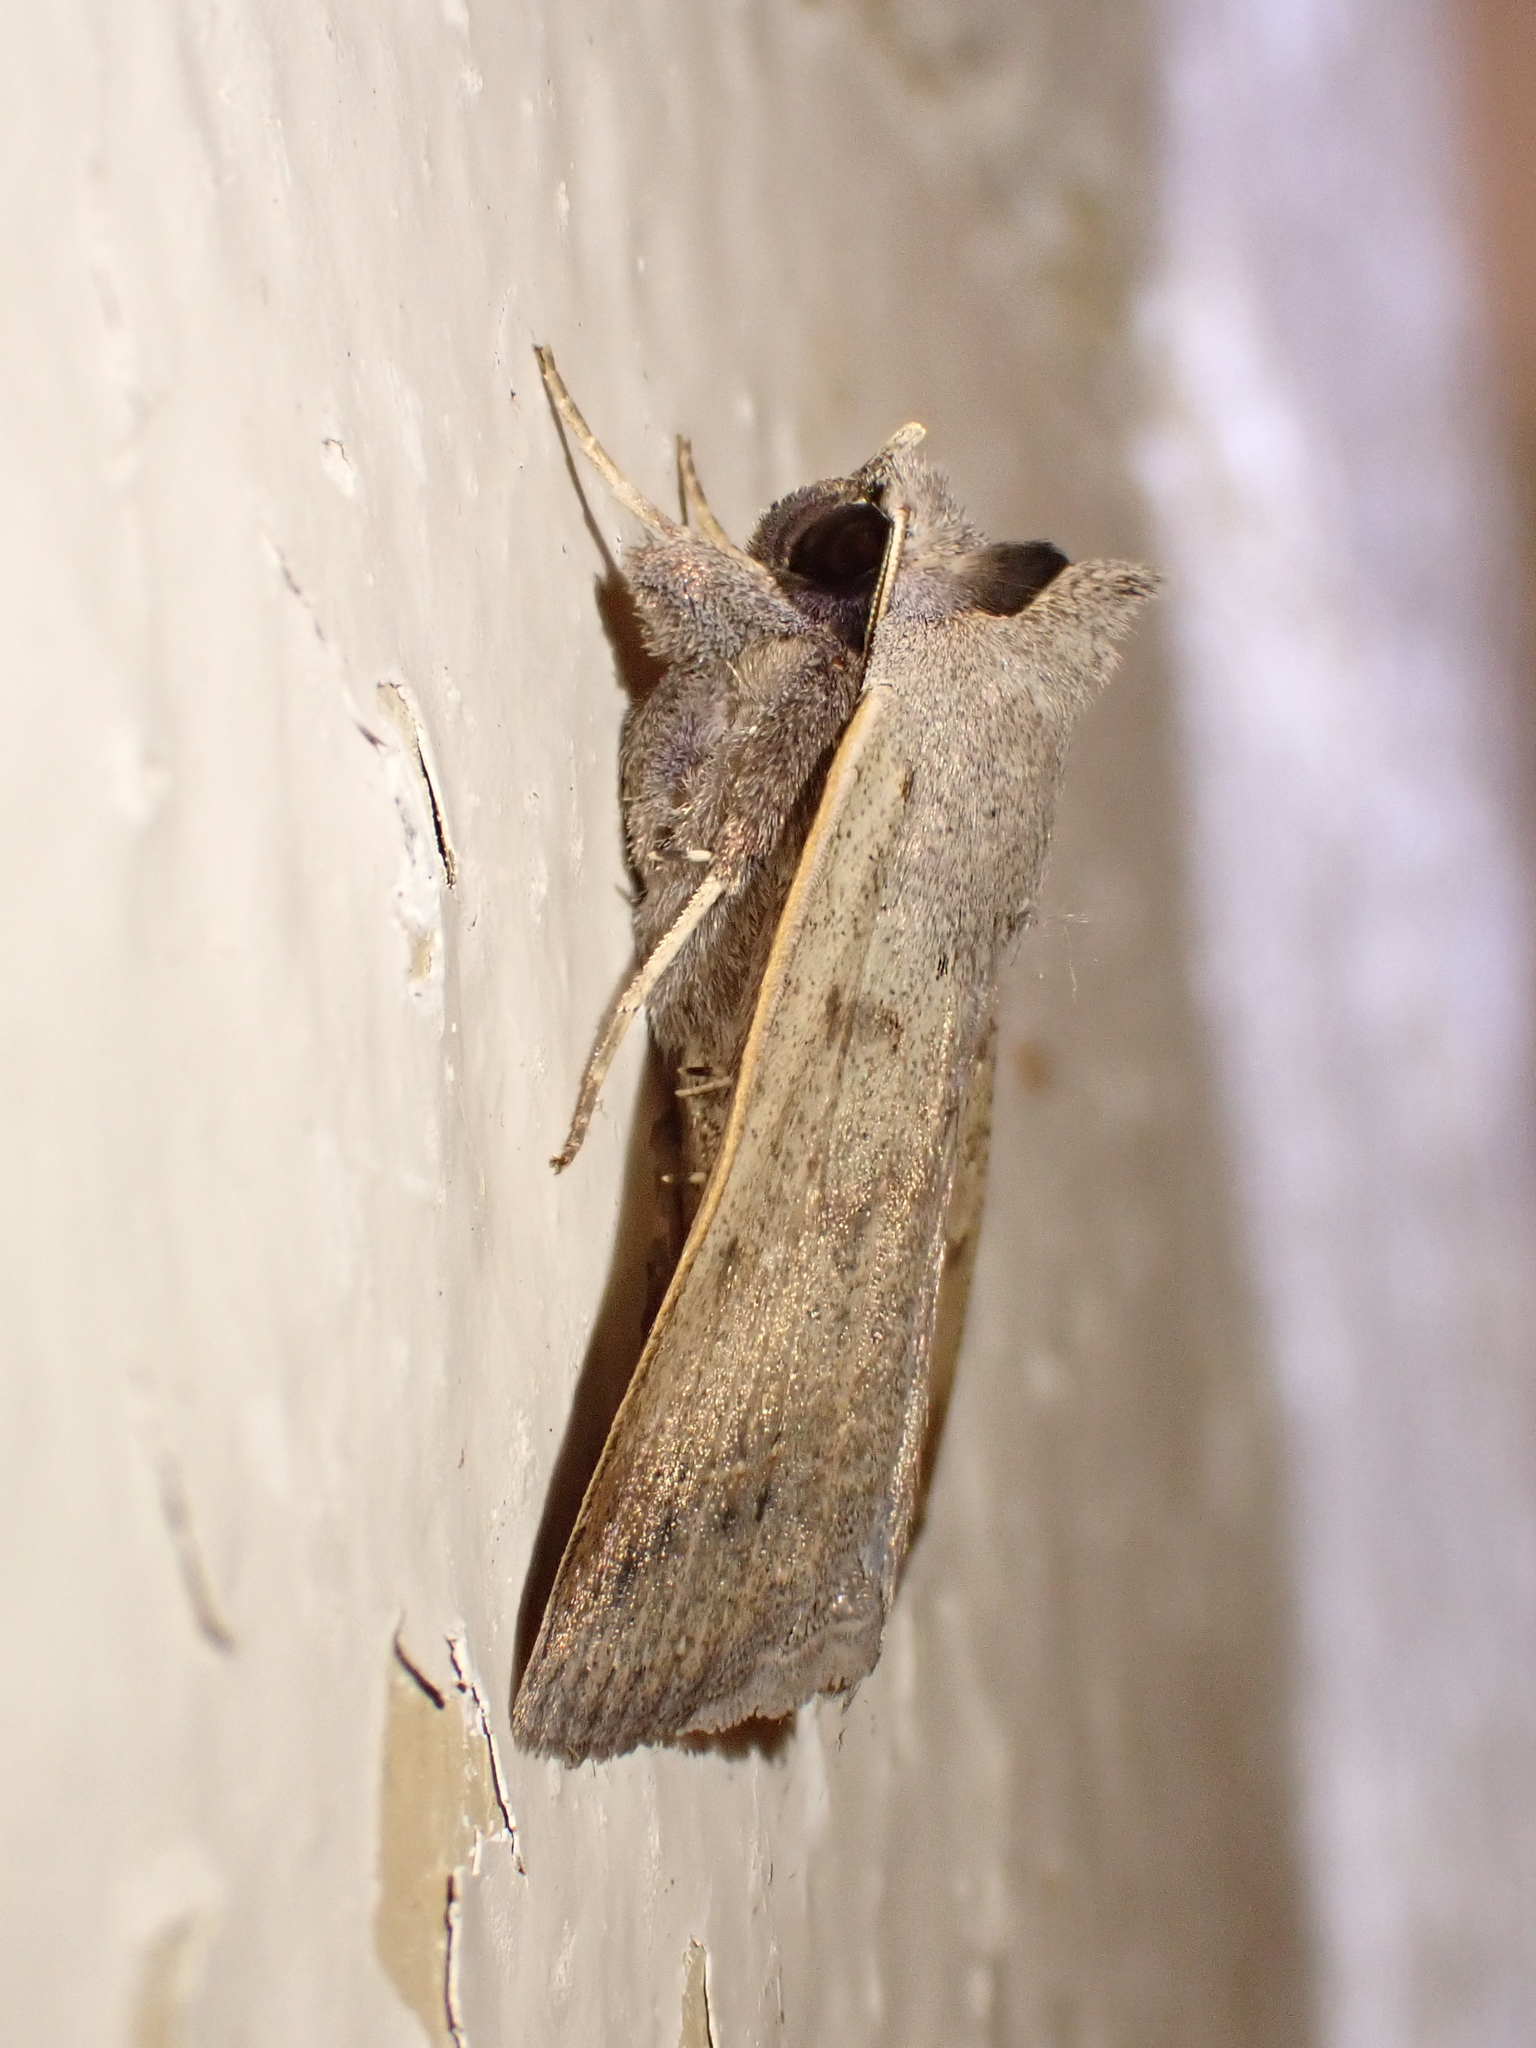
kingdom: Animalia
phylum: Arthropoda
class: Insecta
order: Lepidoptera
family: Erebidae
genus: Pantydia
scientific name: Pantydia sparsa
